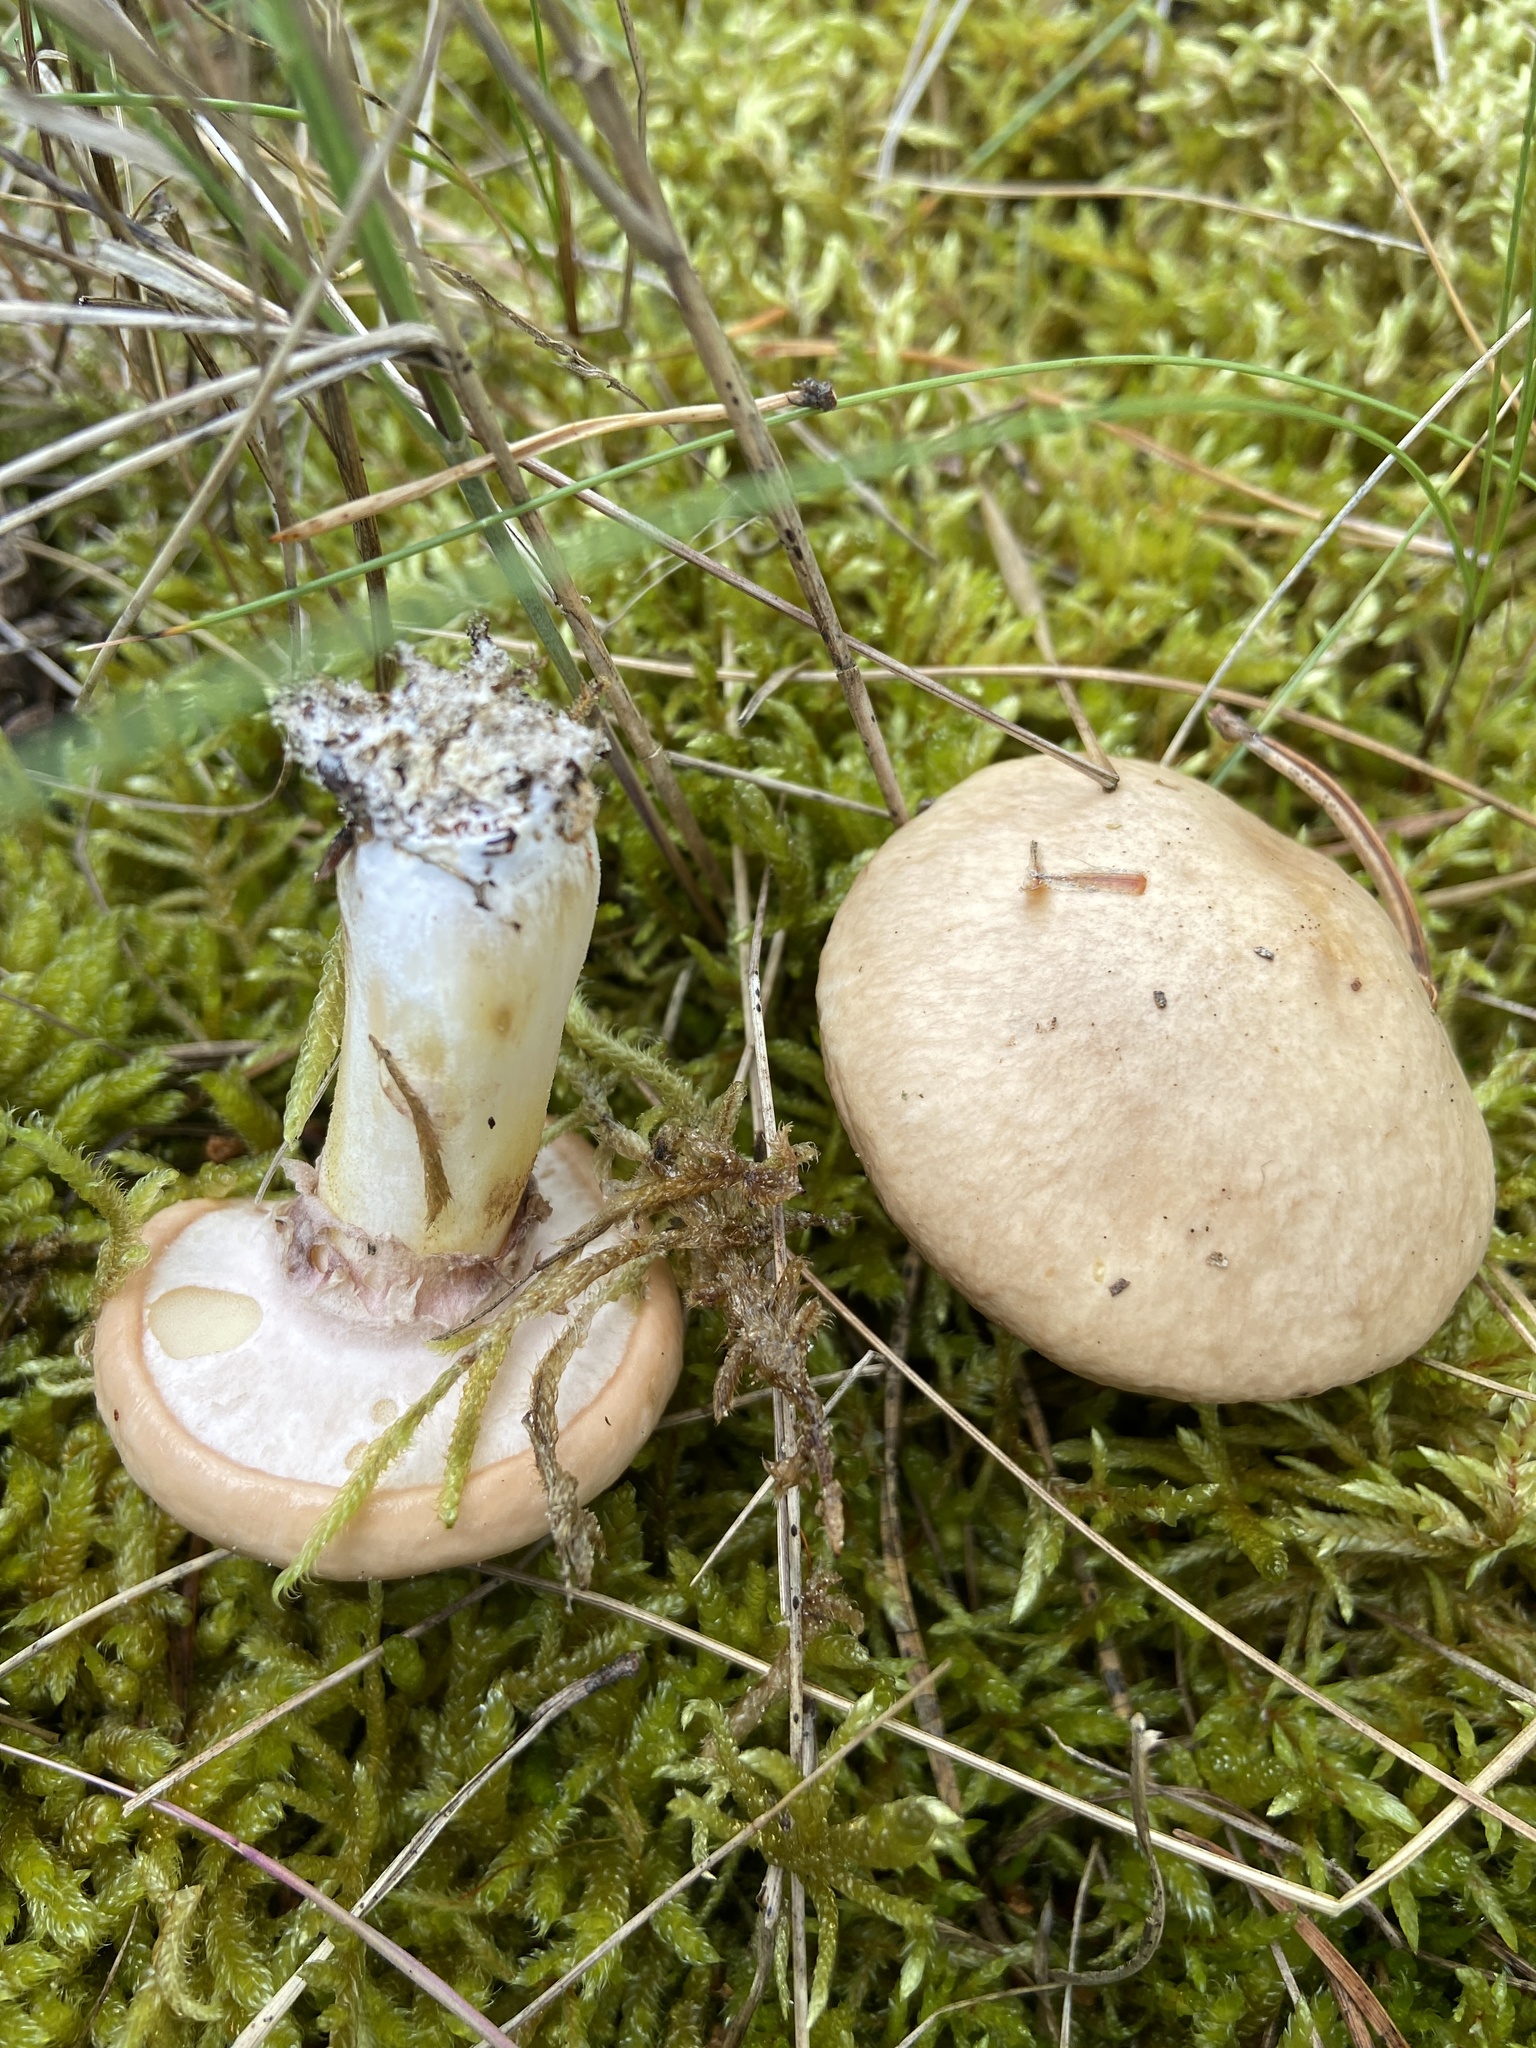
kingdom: Fungi
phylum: Basidiomycota
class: Agaricomycetes
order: Boletales
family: Suillaceae
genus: Suillus
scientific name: Suillus luteus
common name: Slippery jack
